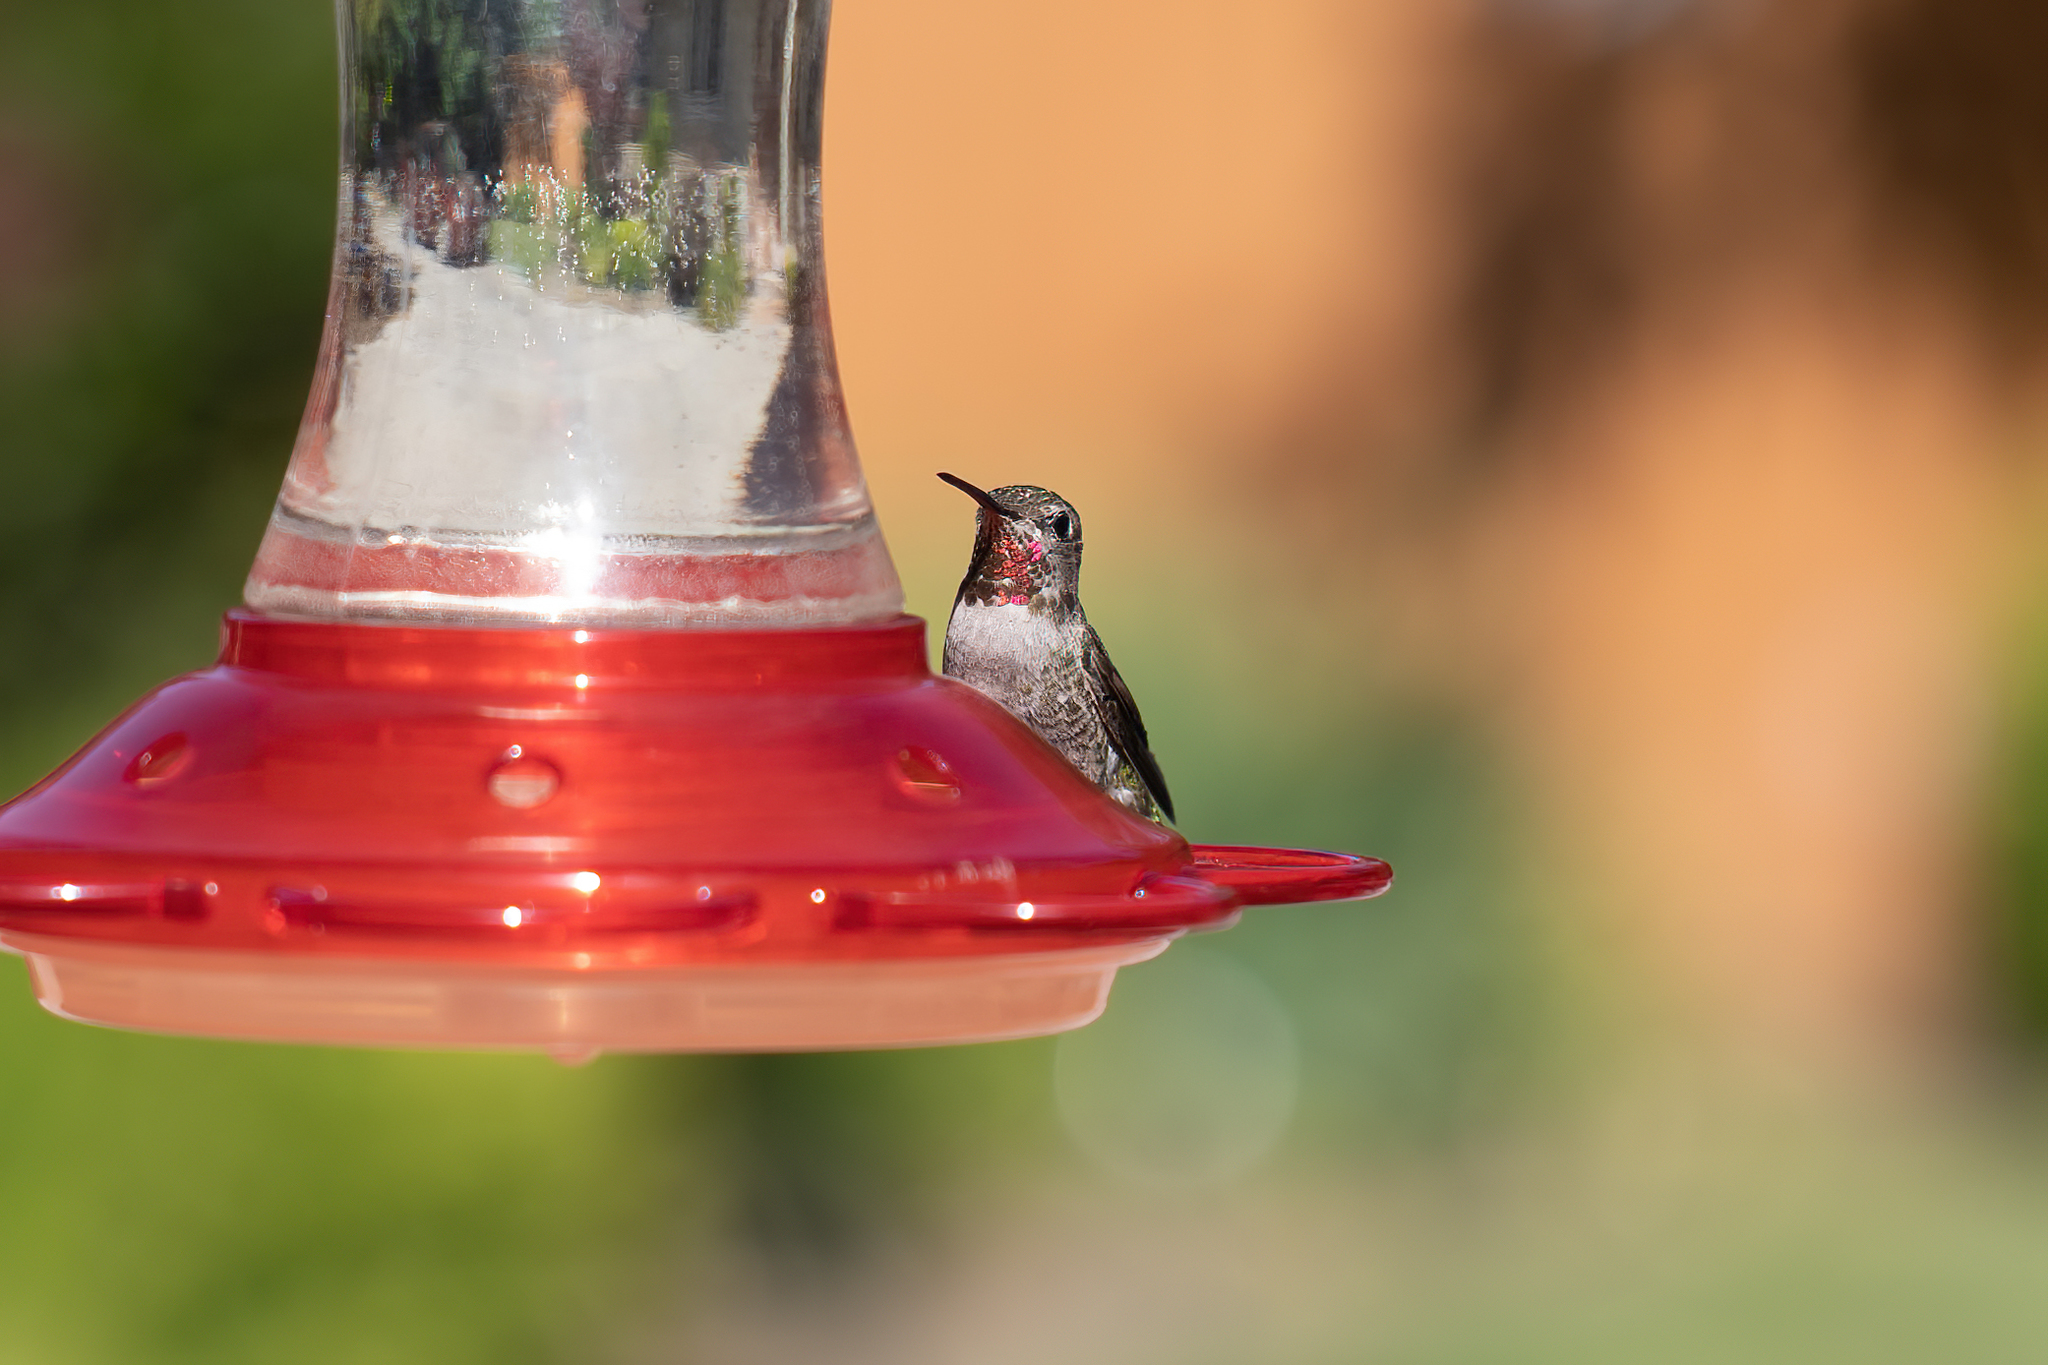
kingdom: Animalia
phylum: Chordata
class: Aves
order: Apodiformes
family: Trochilidae
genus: Calypte
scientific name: Calypte anna
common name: Anna's hummingbird
